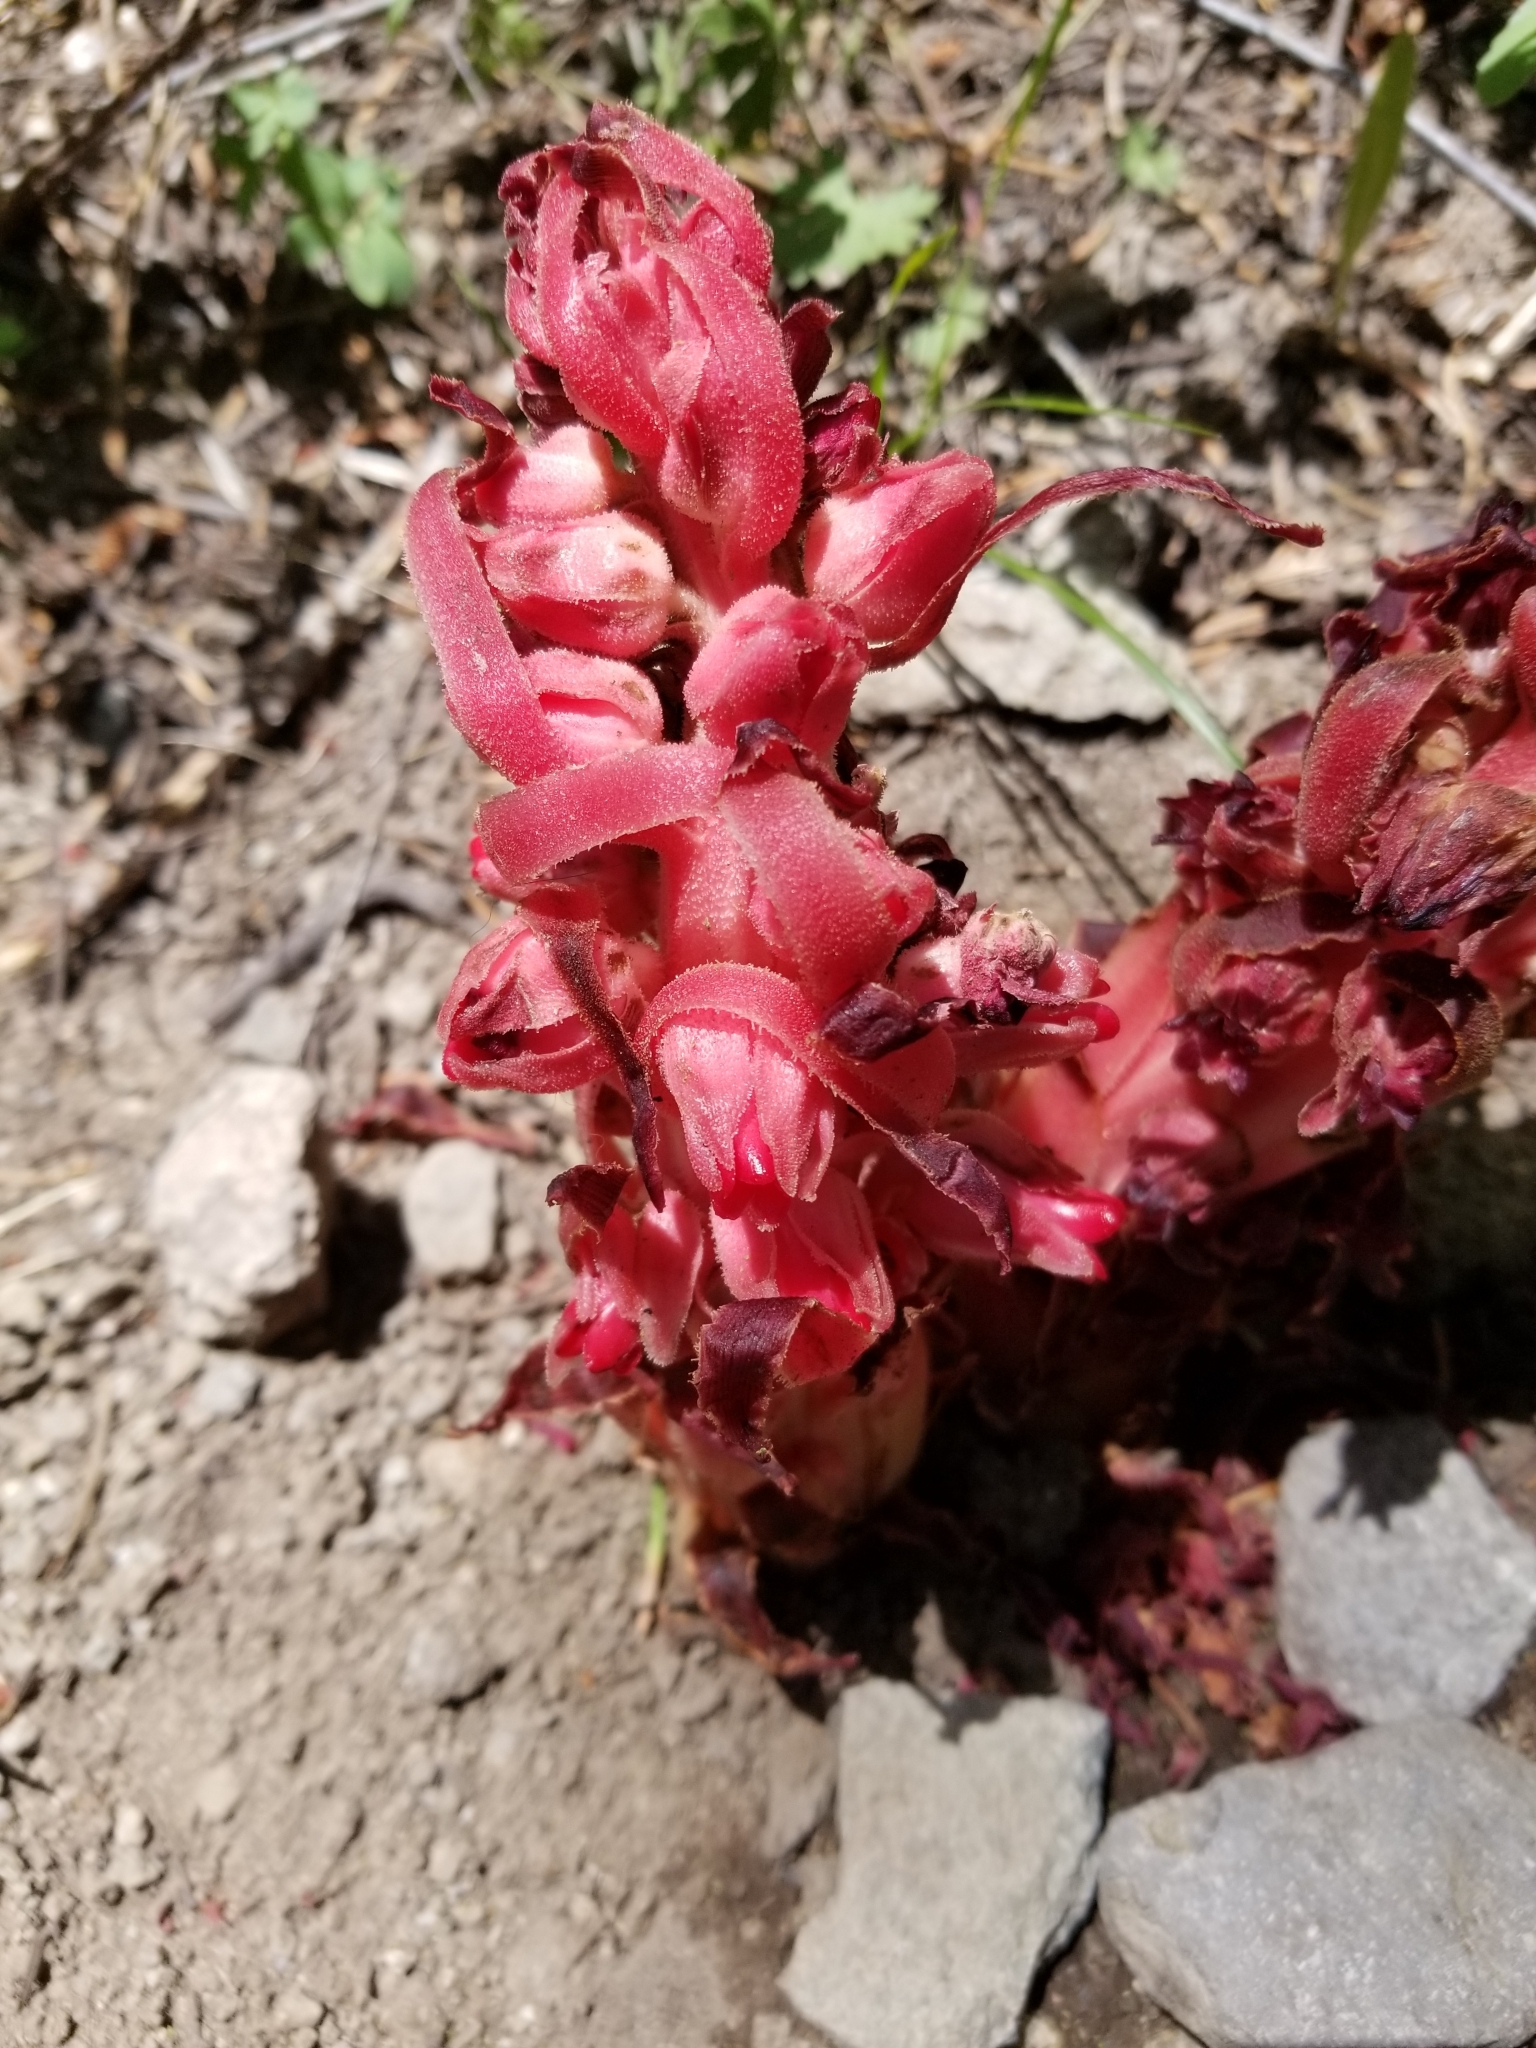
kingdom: Plantae
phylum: Tracheophyta
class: Magnoliopsida
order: Ericales
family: Ericaceae
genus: Sarcodes
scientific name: Sarcodes sanguinea
